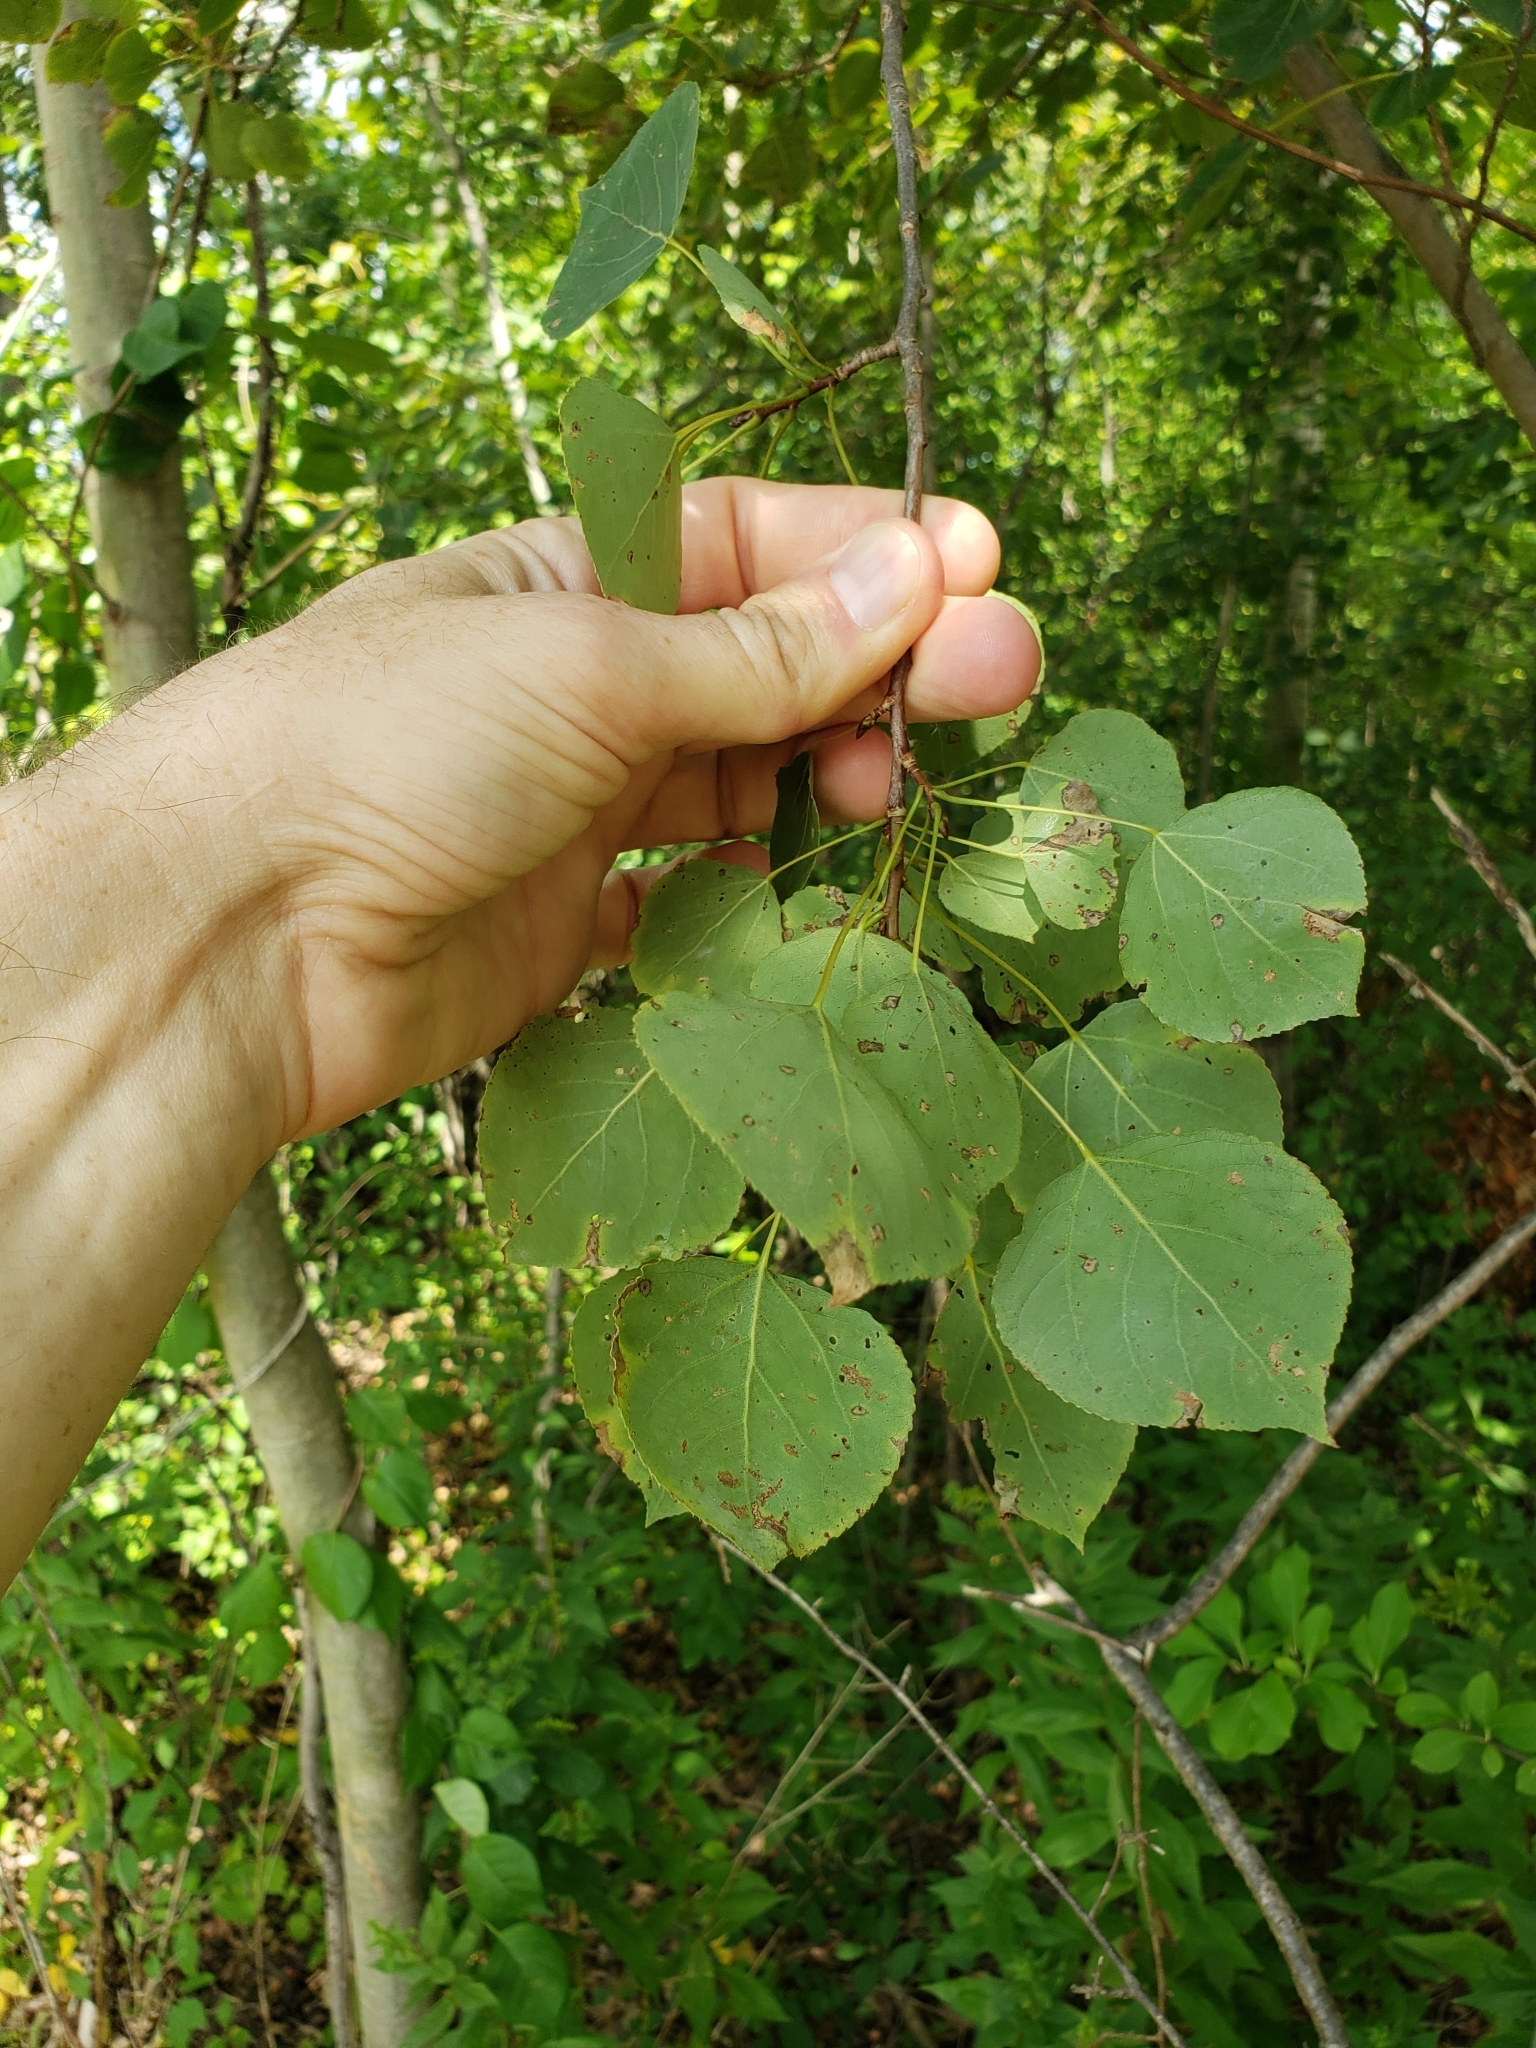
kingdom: Plantae
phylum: Tracheophyta
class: Magnoliopsida
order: Malpighiales
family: Salicaceae
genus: Populus
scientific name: Populus tremuloides
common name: Quaking aspen
